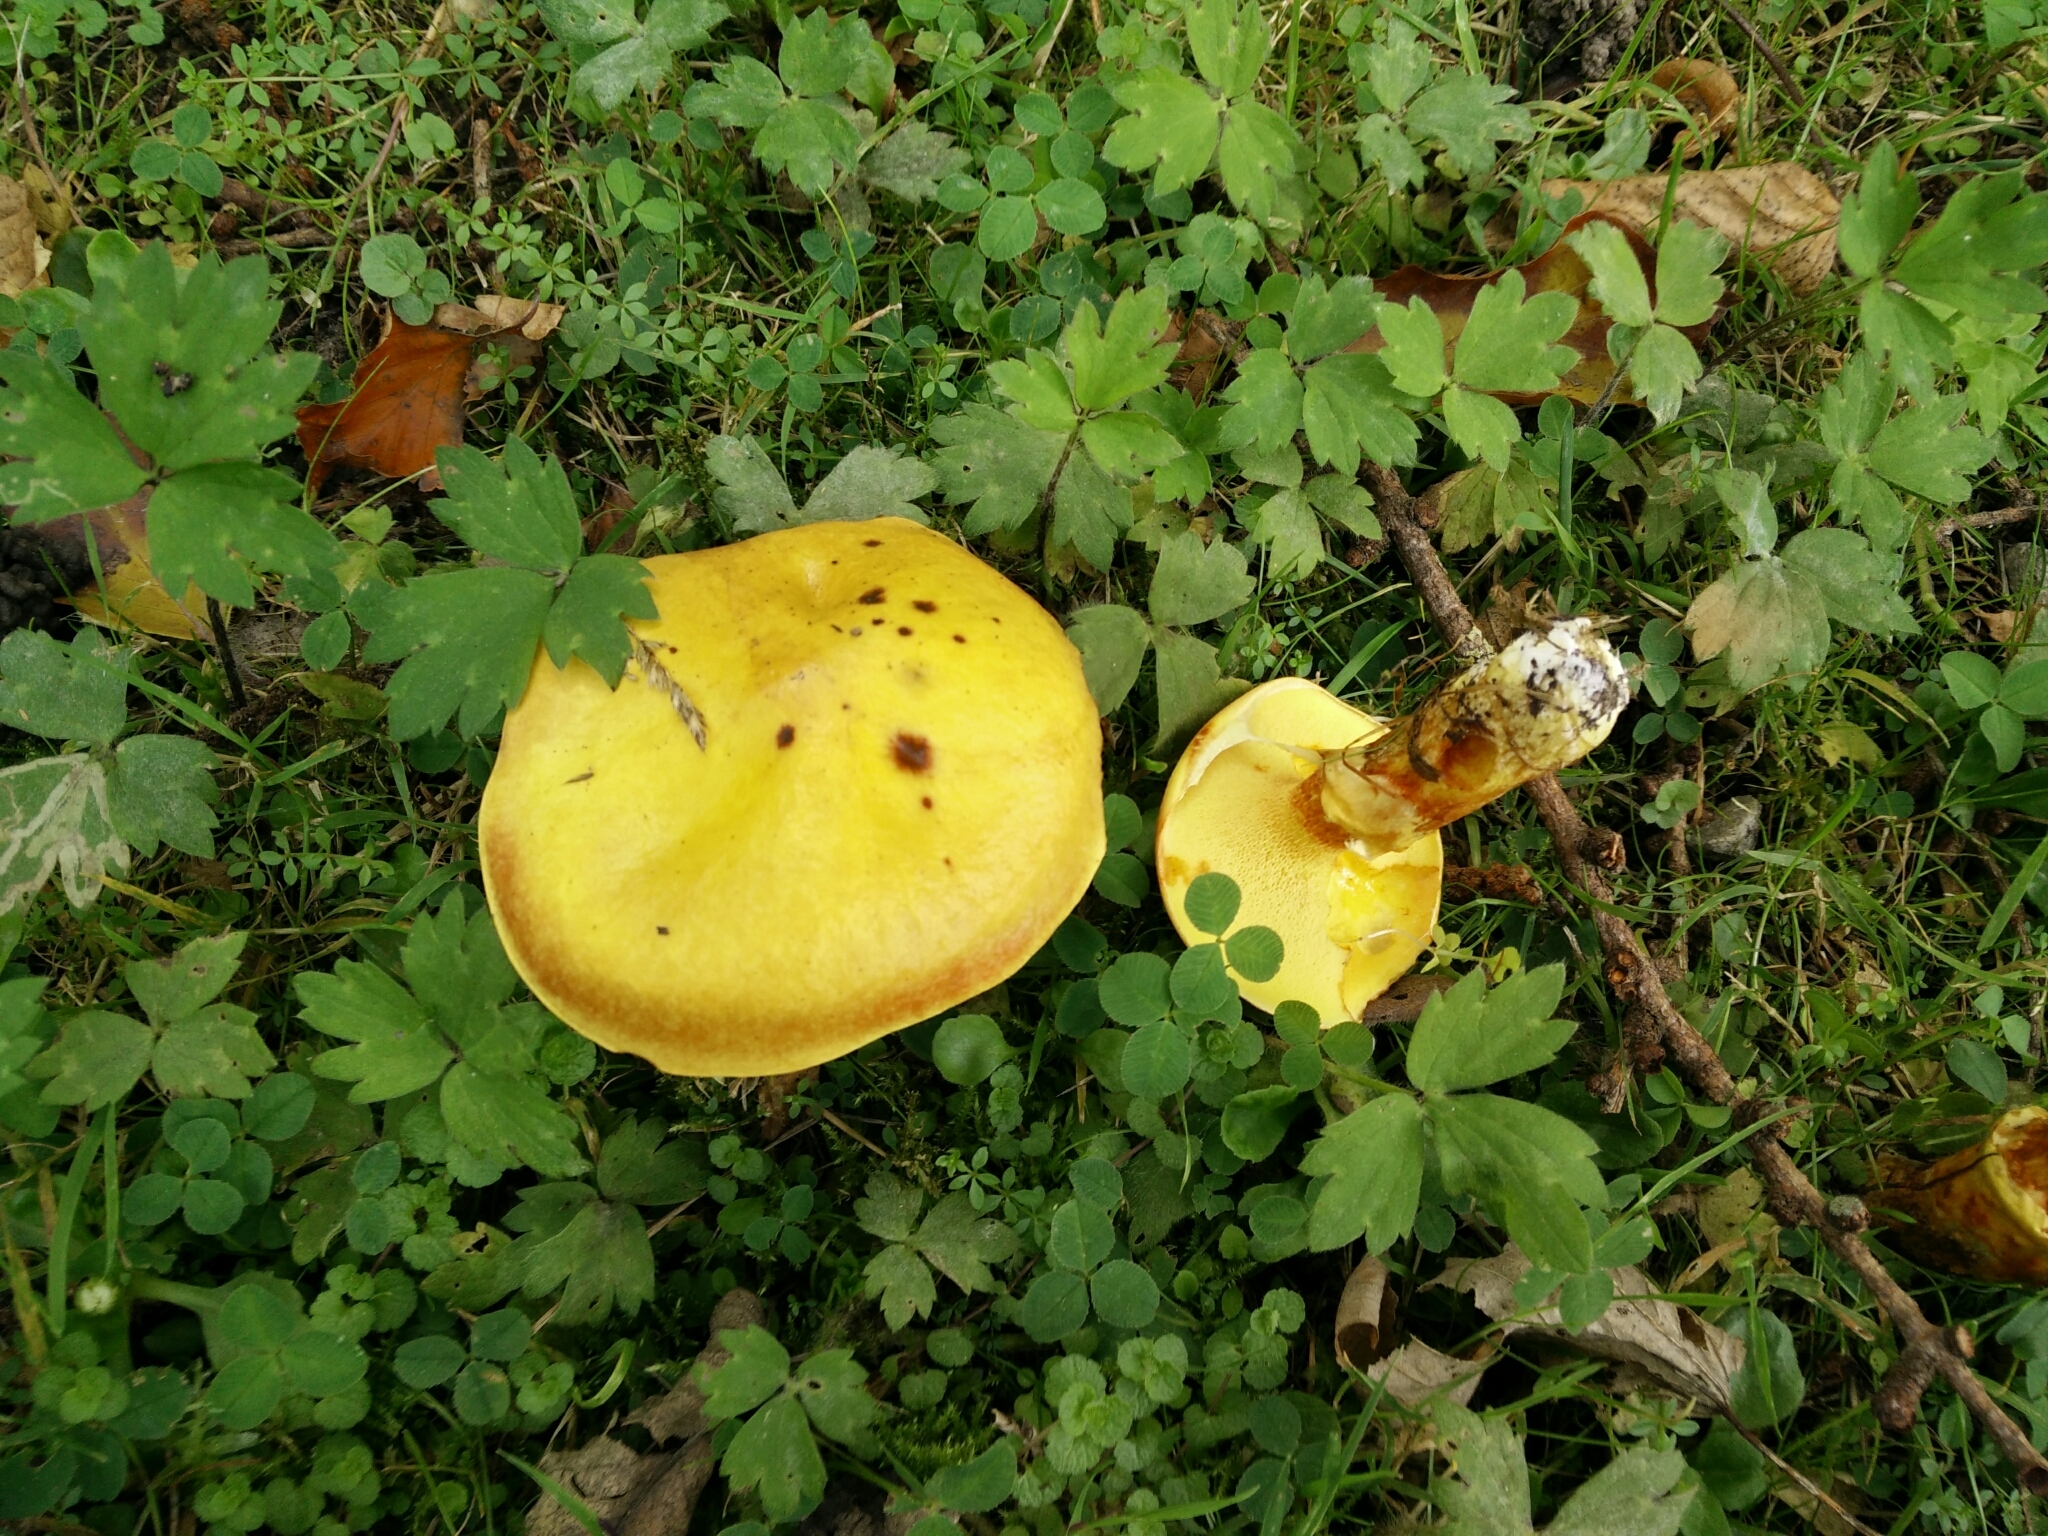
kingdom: Fungi
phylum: Basidiomycota
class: Agaricomycetes
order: Boletales
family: Suillaceae
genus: Suillus
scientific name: Suillus grevillei
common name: Larch bolete
